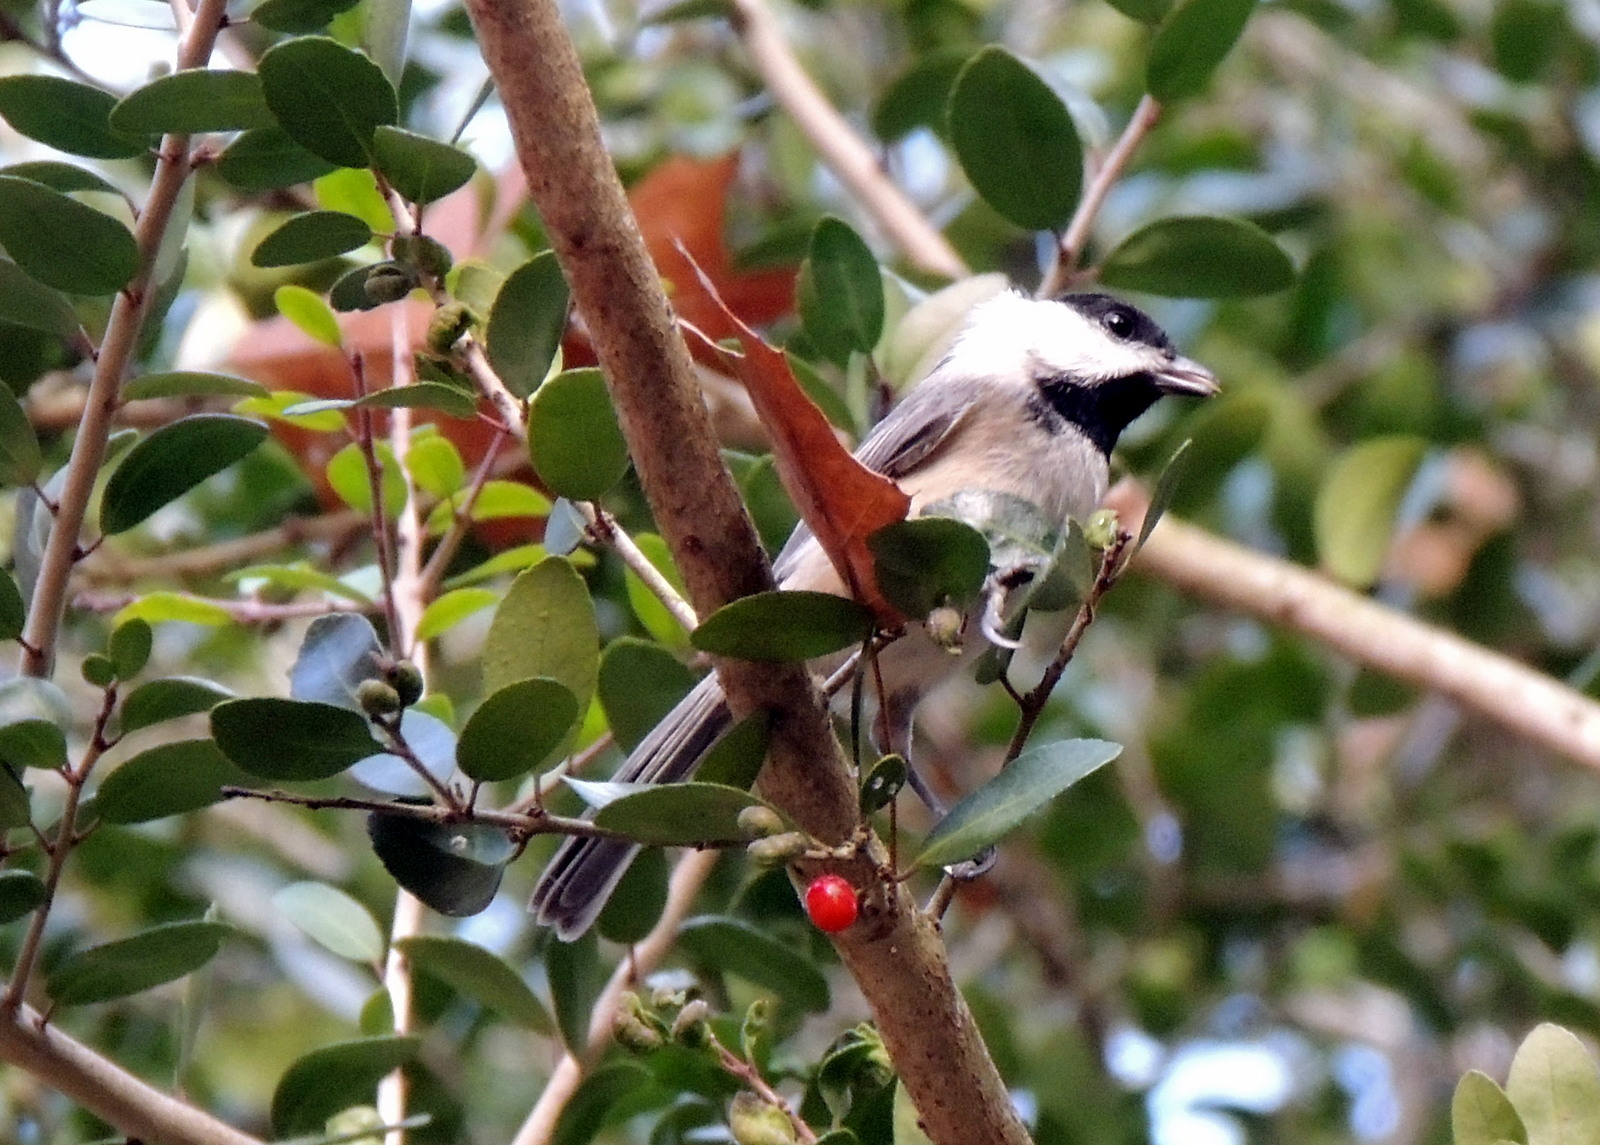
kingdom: Animalia
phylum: Chordata
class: Aves
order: Passeriformes
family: Paridae
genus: Poecile
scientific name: Poecile carolinensis
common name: Carolina chickadee
